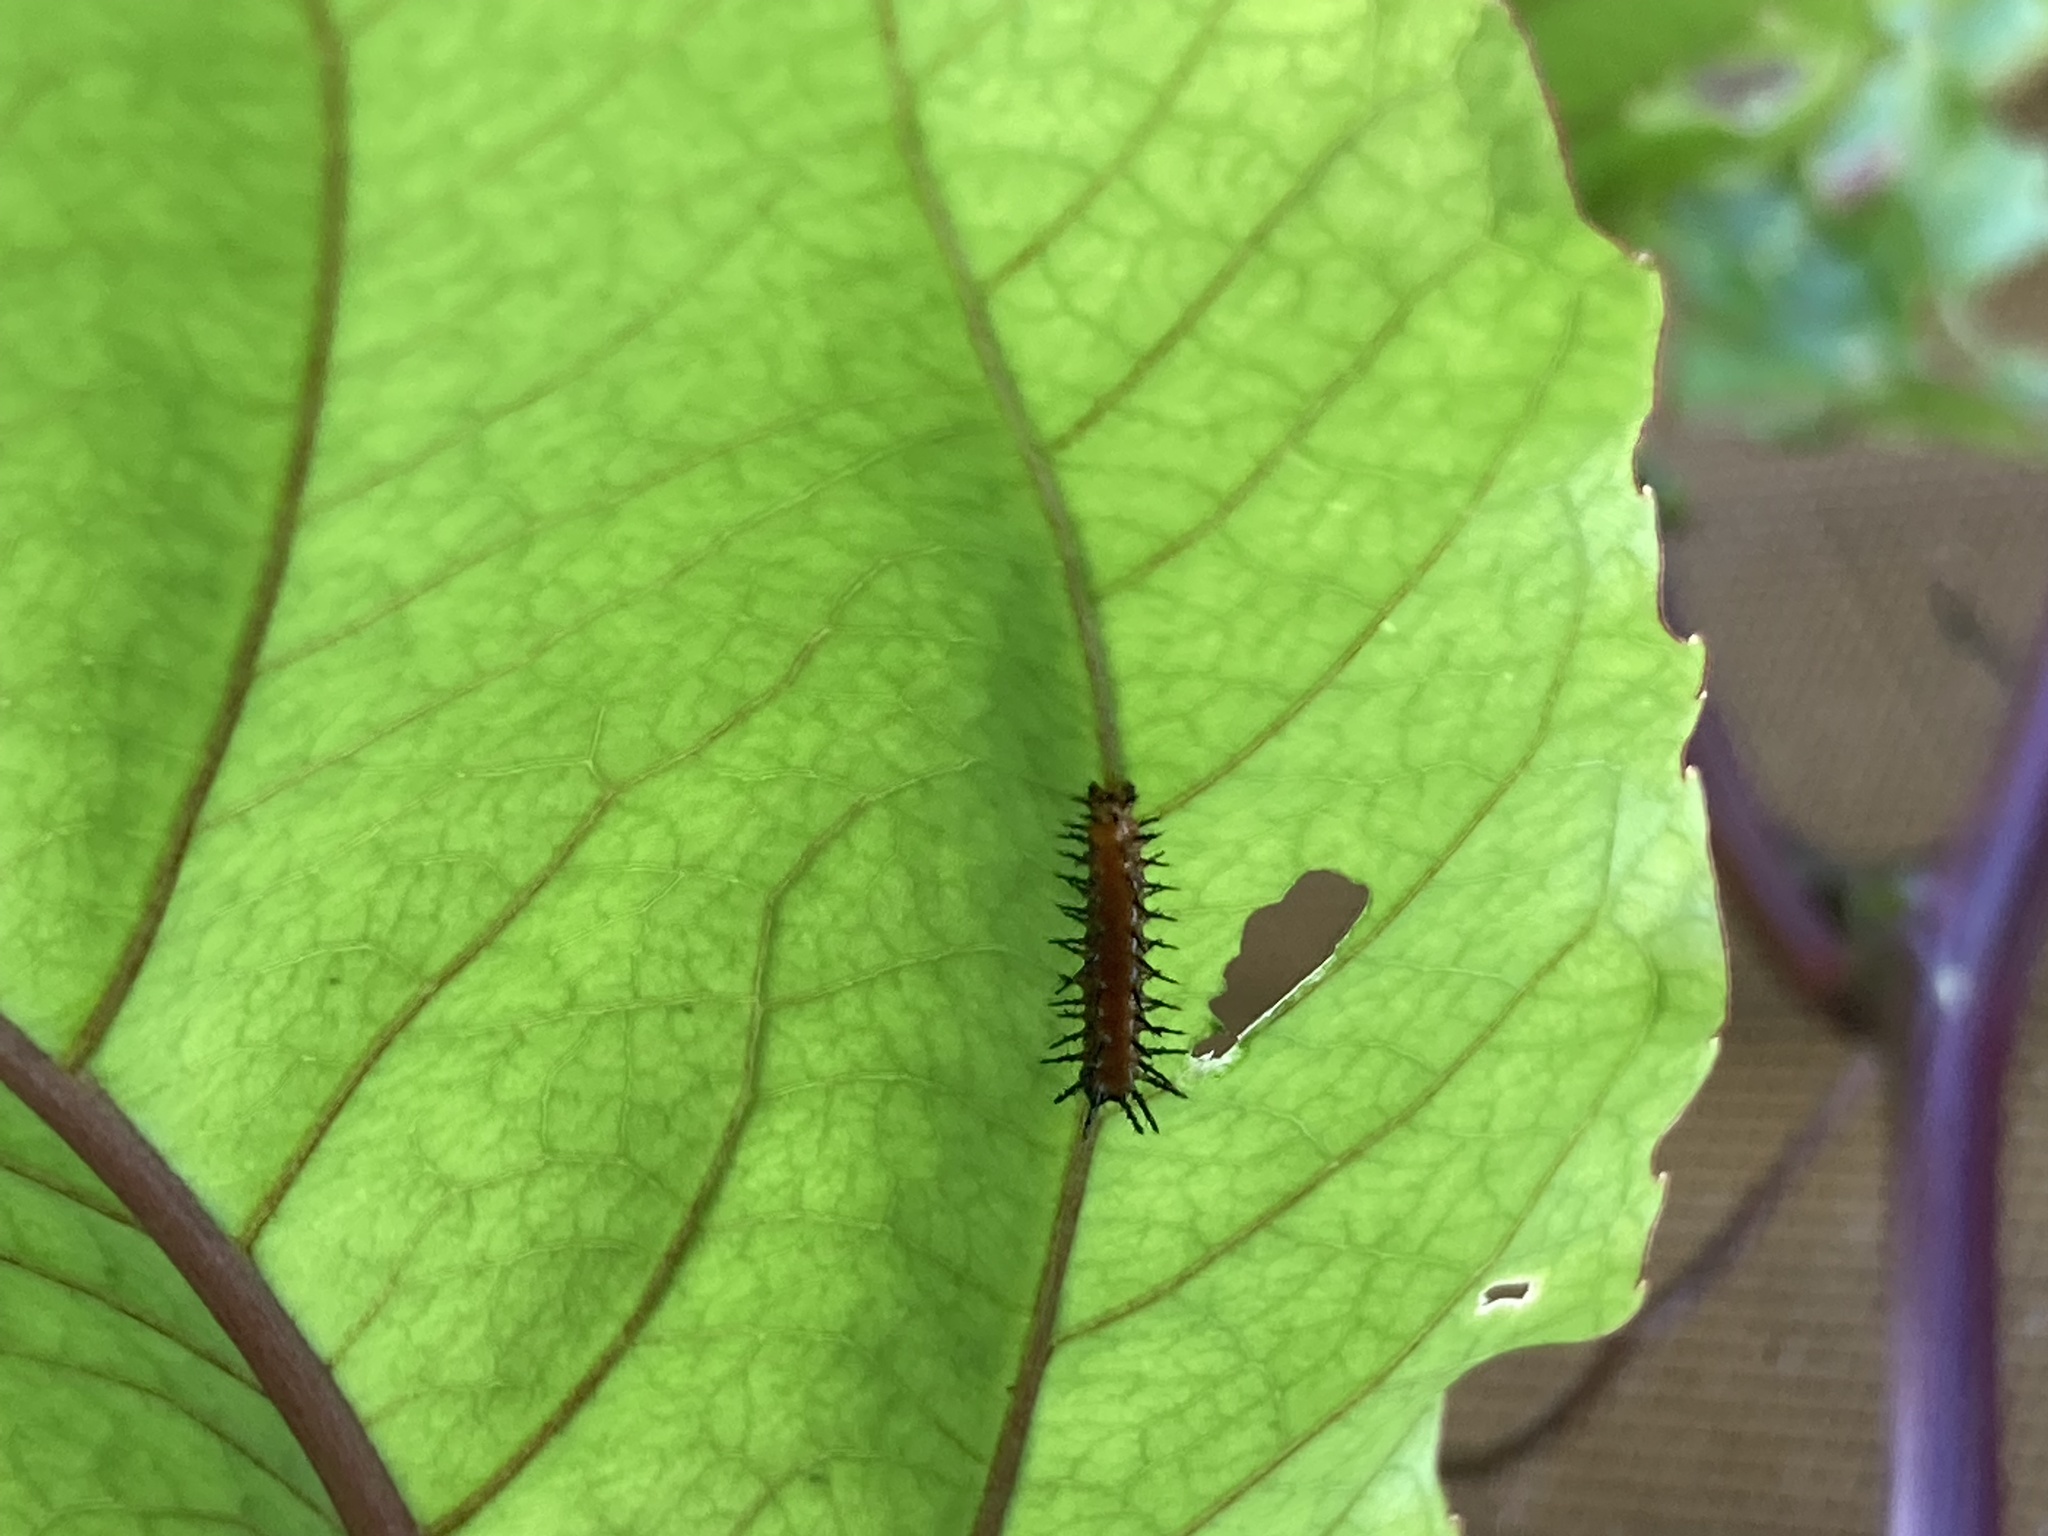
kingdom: Animalia
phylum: Arthropoda
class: Insecta
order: Lepidoptera
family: Nymphalidae
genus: Dione
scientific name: Dione vanillae
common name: Gulf fritillary
